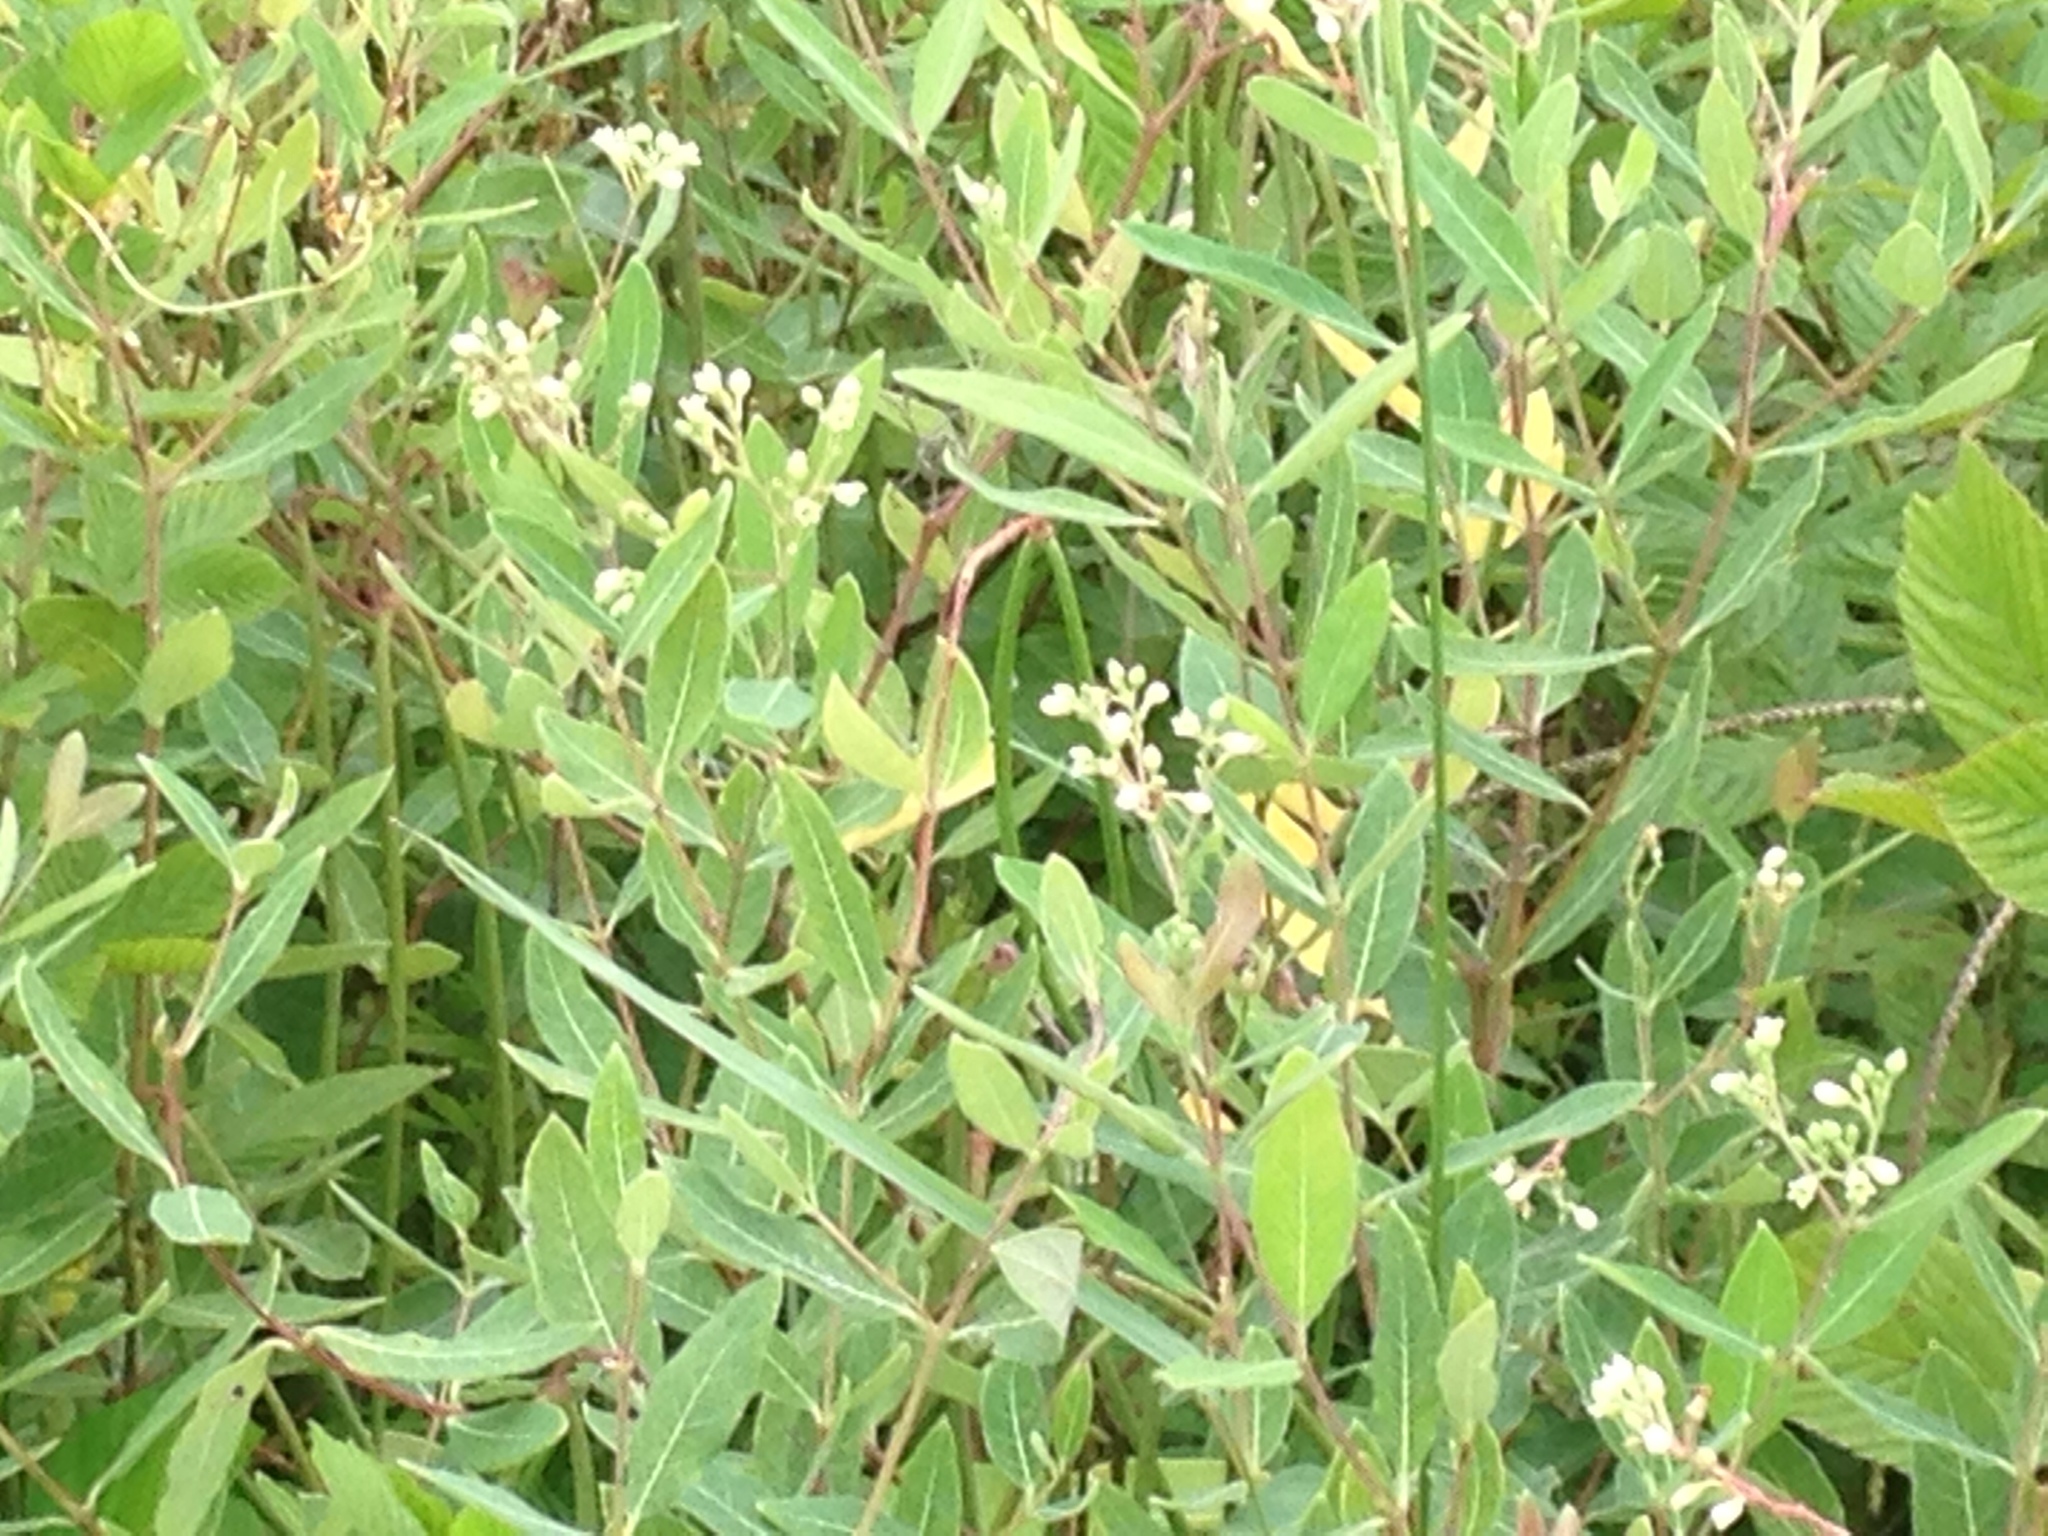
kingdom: Plantae
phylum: Tracheophyta
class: Magnoliopsida
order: Gentianales
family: Apocynaceae
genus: Apocynum
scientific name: Apocynum cannabinum
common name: Hemp dogbane
